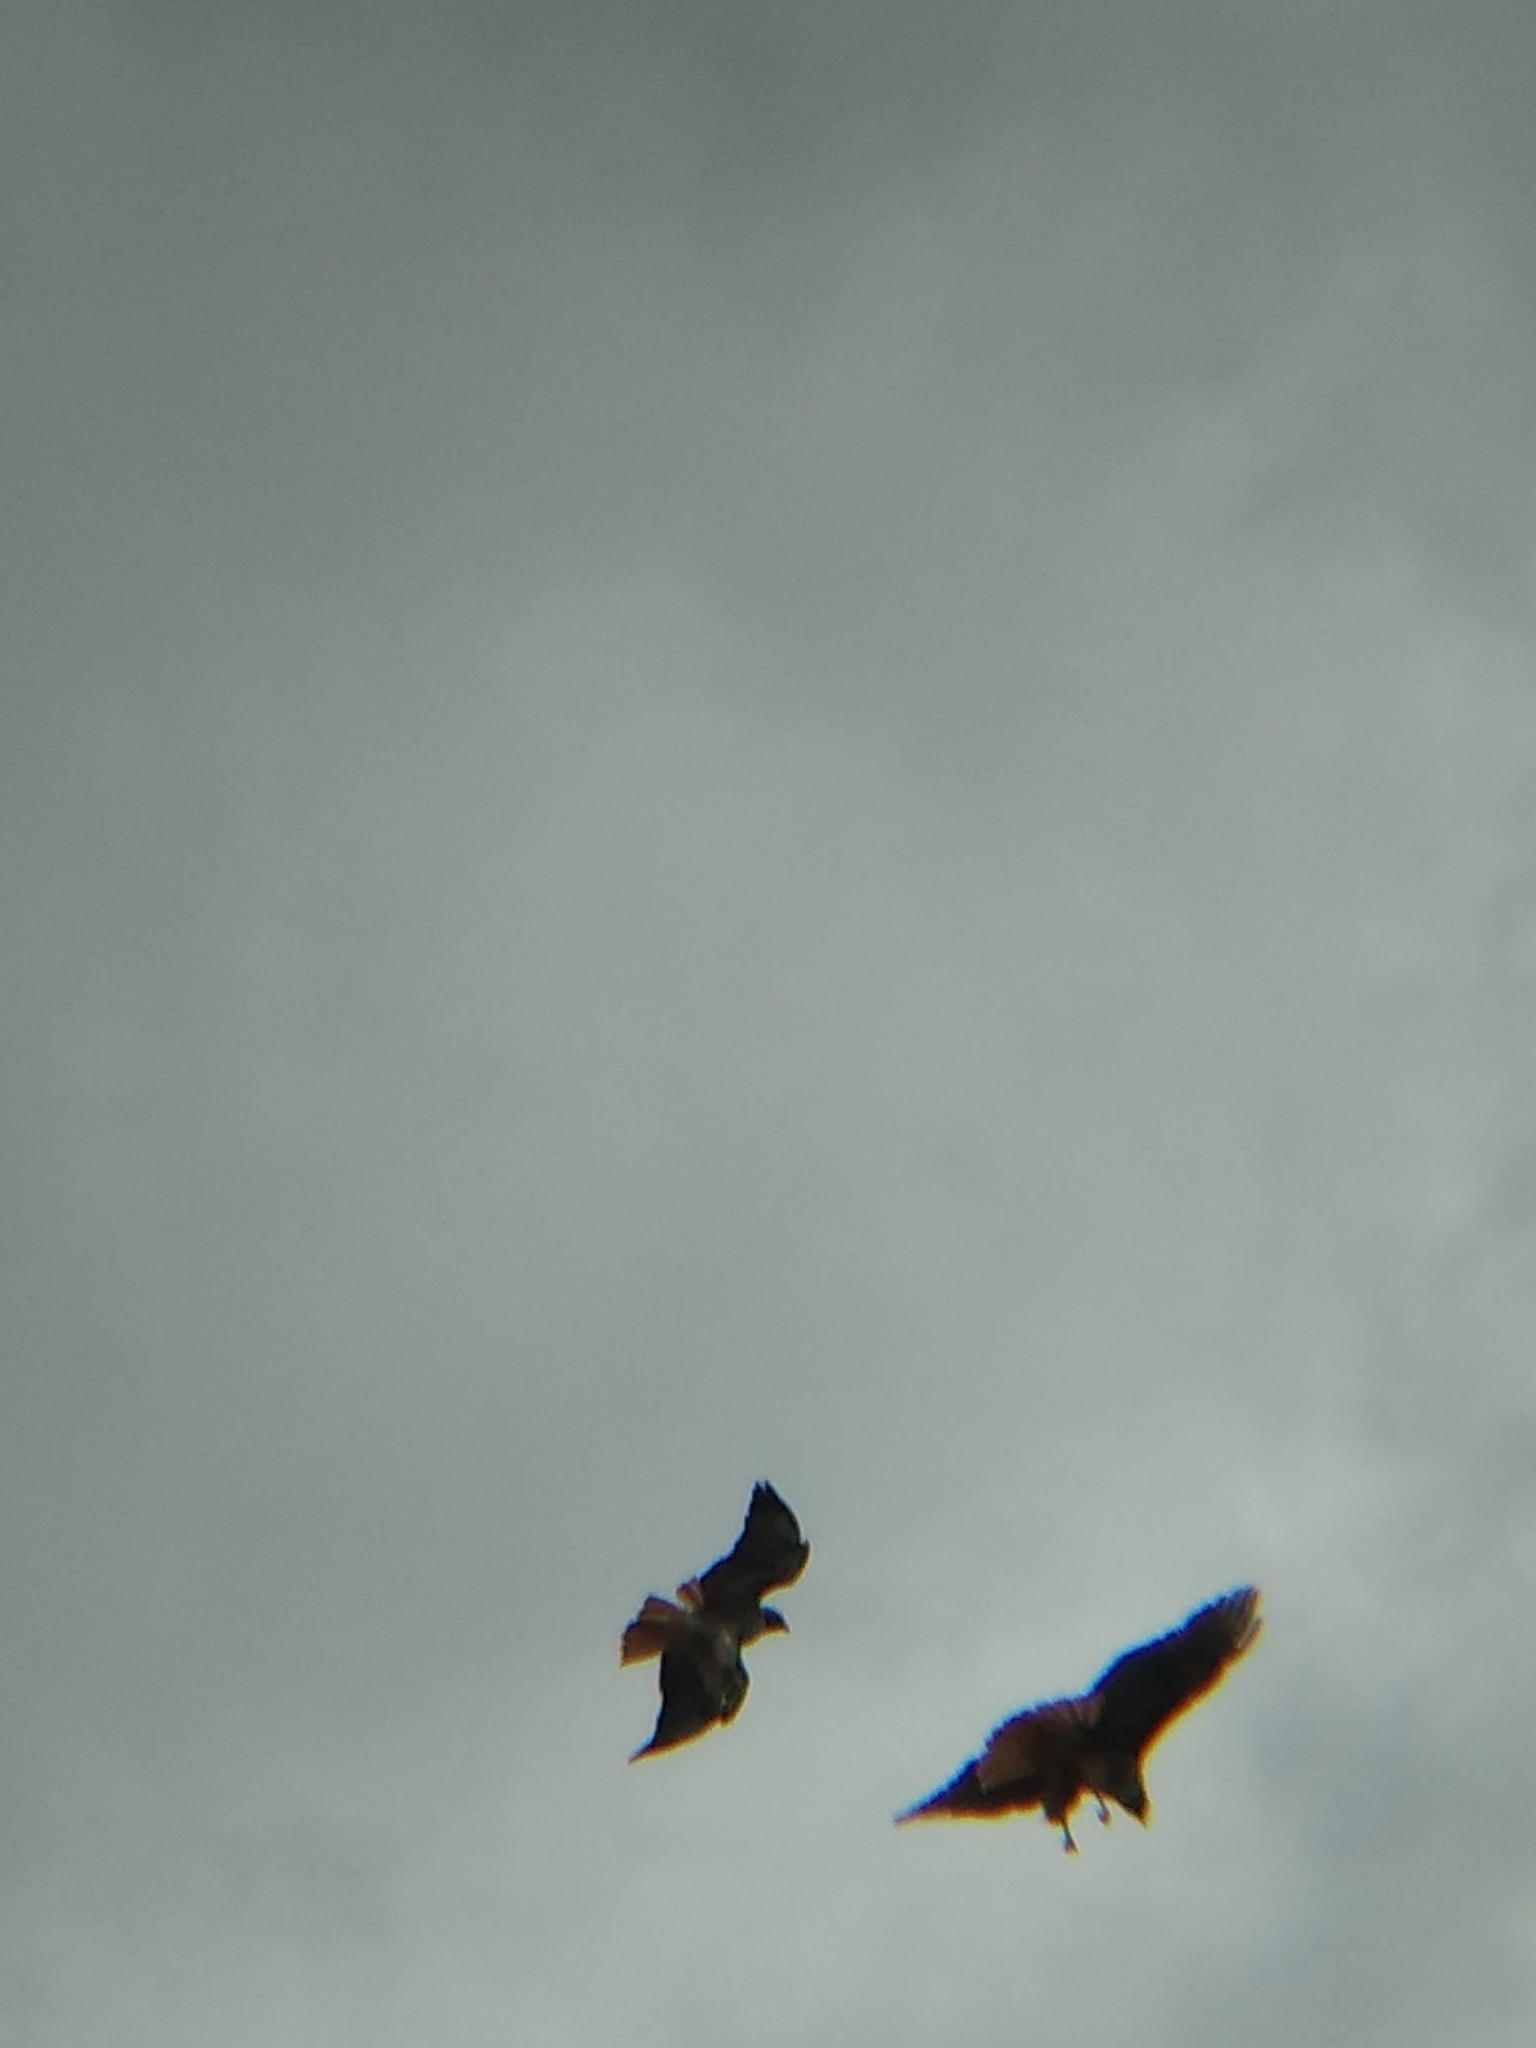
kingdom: Animalia
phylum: Chordata
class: Aves
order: Accipitriformes
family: Accipitridae
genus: Buteo
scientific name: Buteo jamaicensis
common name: Red-tailed hawk
